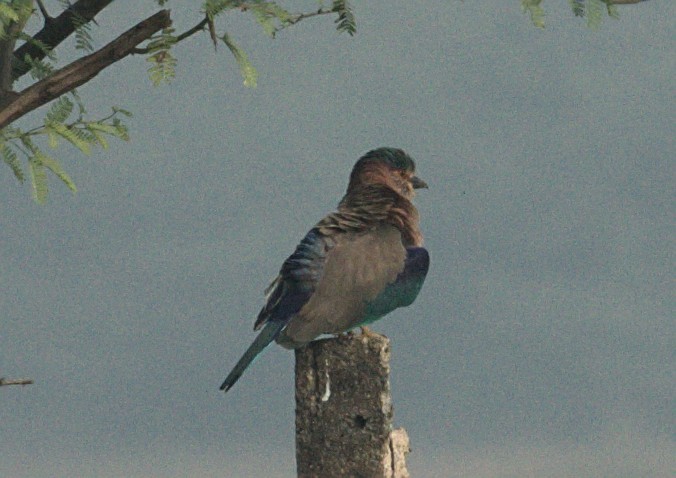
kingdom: Animalia
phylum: Chordata
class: Aves
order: Coraciiformes
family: Coraciidae
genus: Coracias
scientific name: Coracias benghalensis
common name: Indian roller
